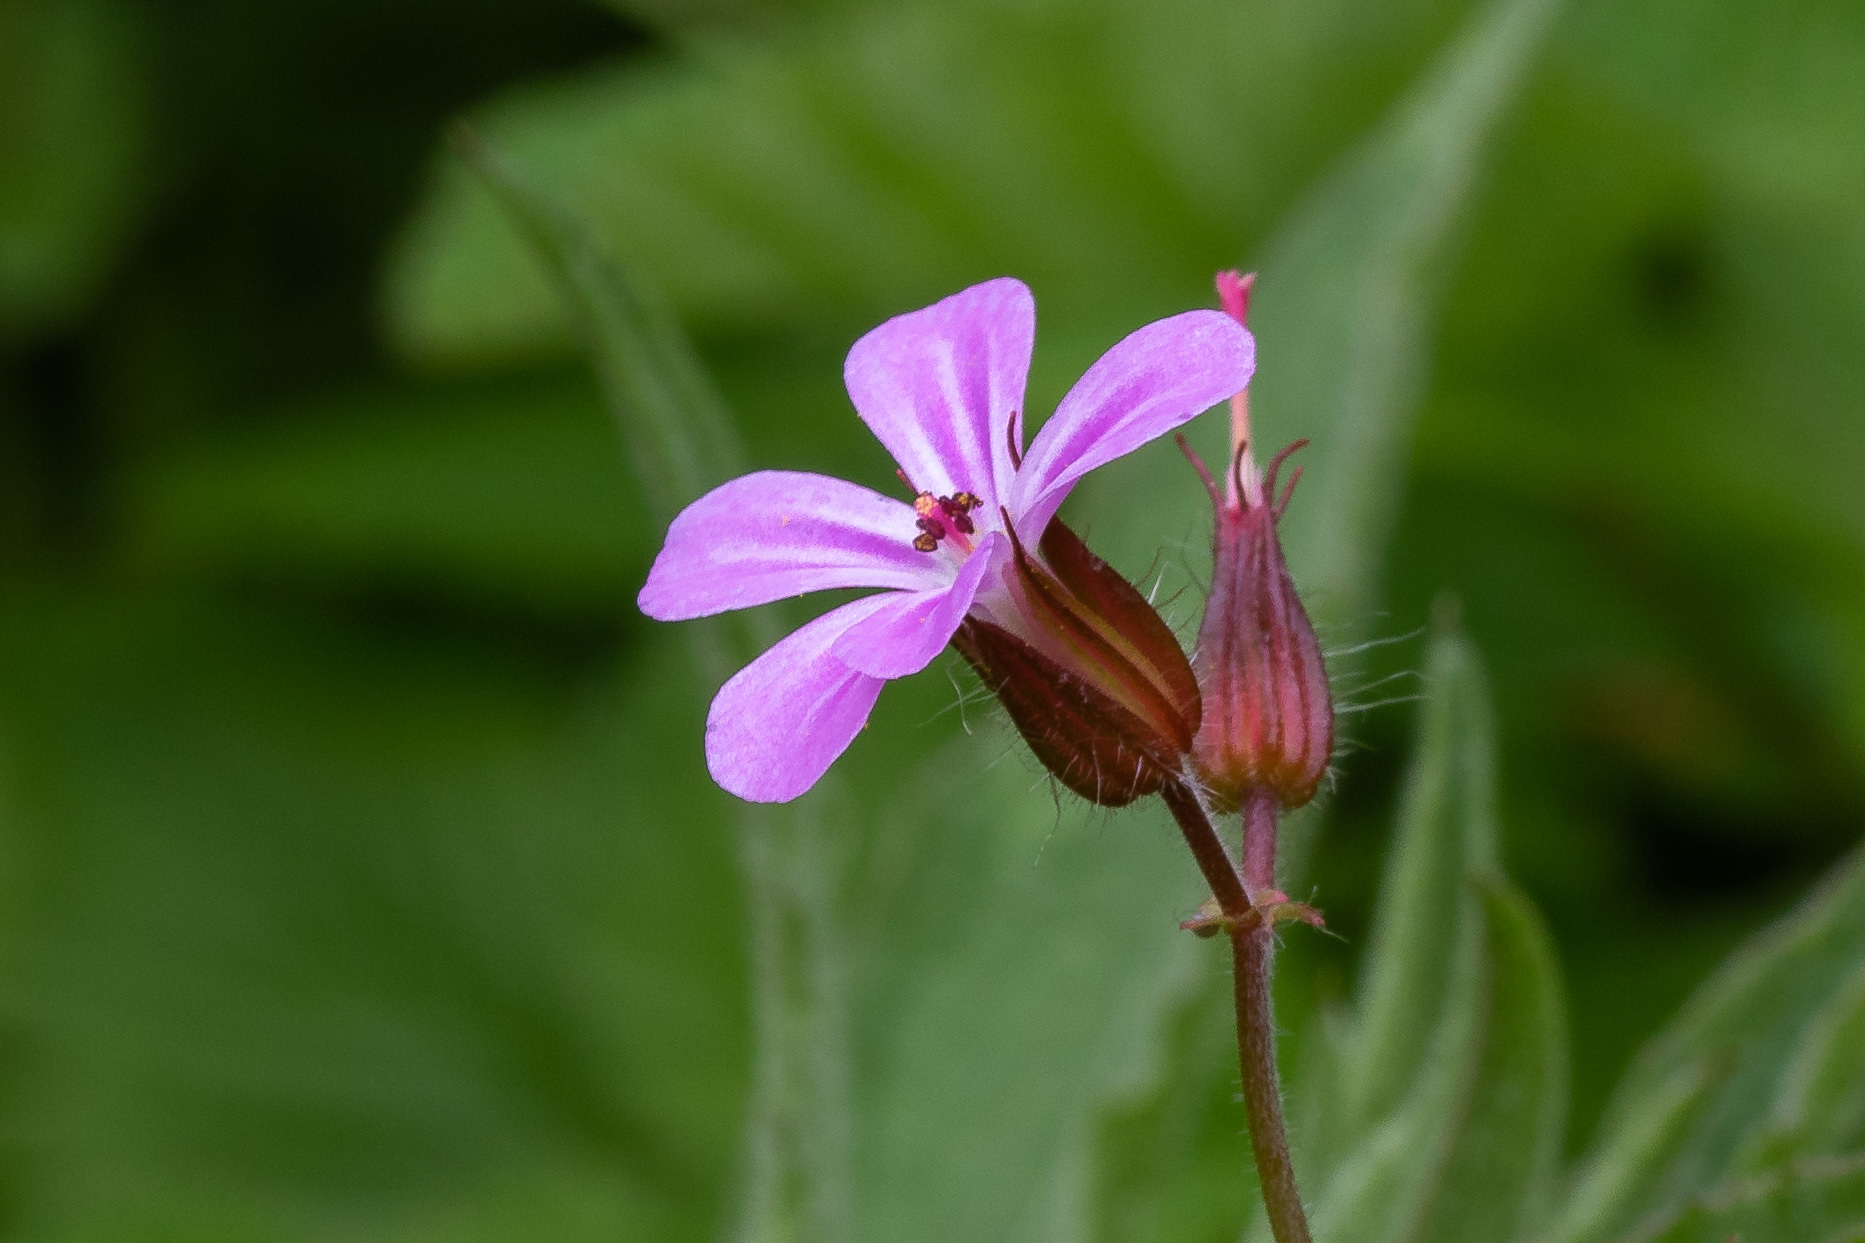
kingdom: Plantae
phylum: Tracheophyta
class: Magnoliopsida
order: Geraniales
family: Geraniaceae
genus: Geranium
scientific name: Geranium robertianum
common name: Herb-robert
